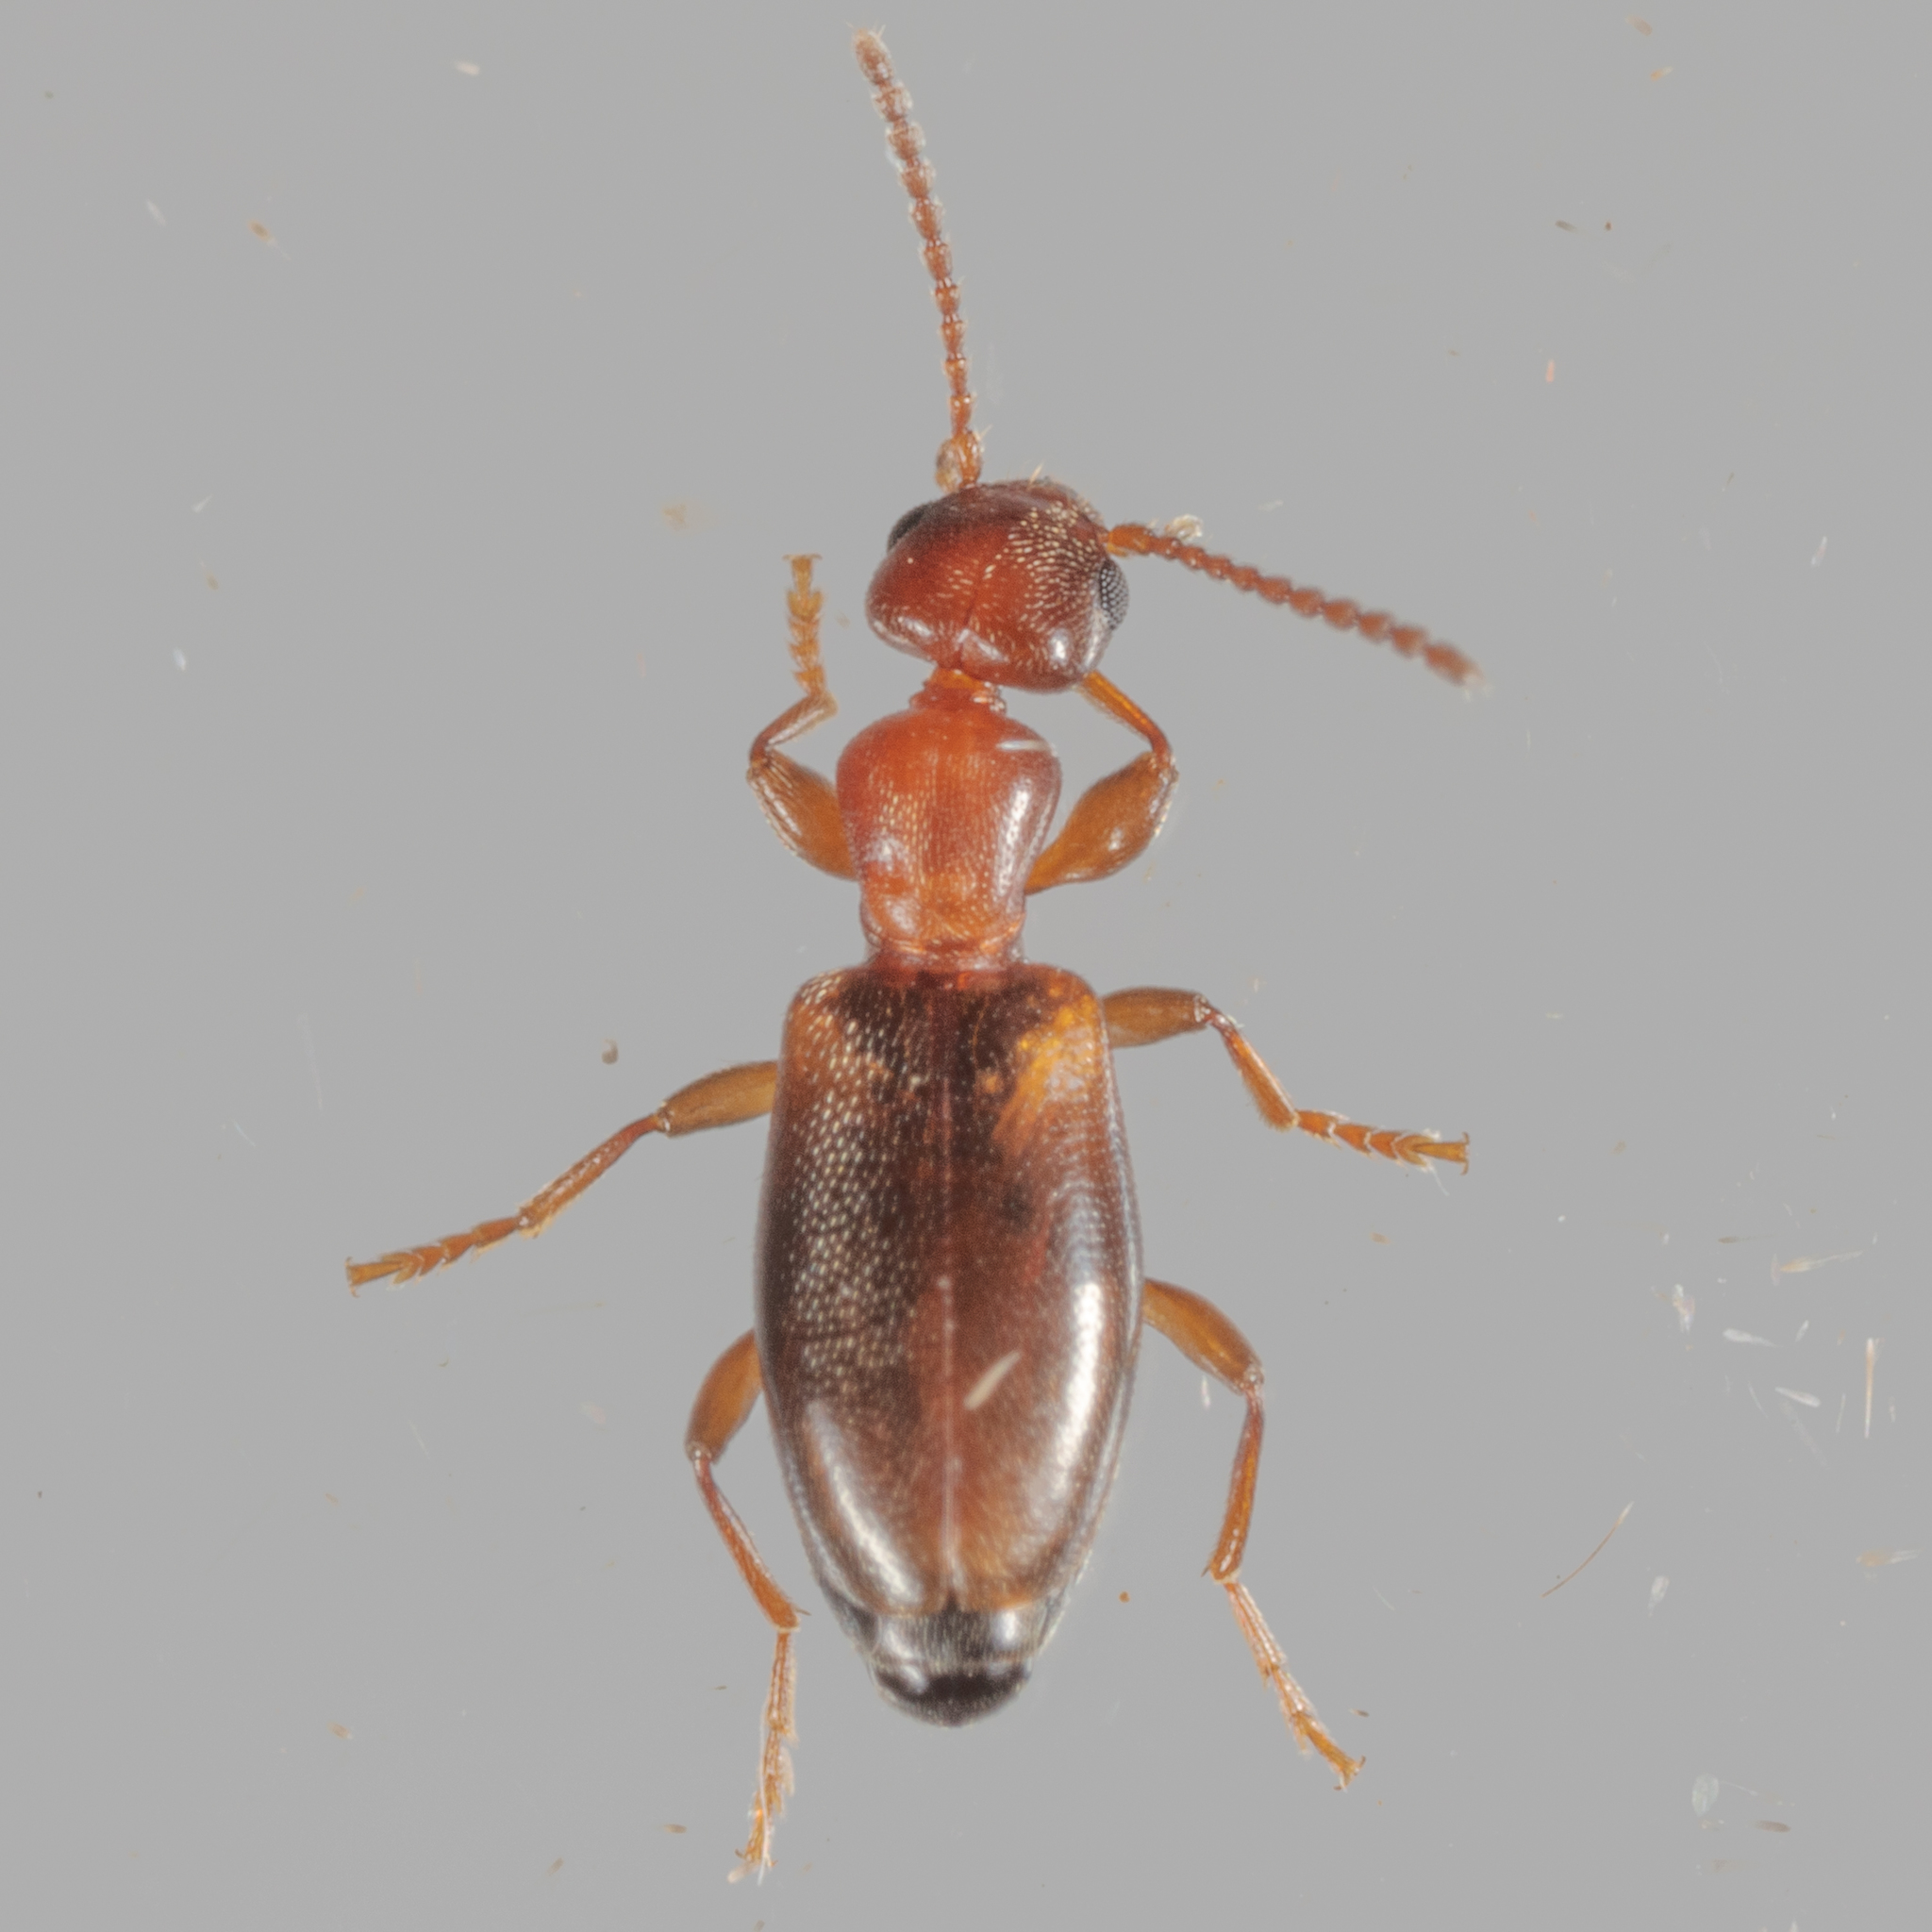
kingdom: Animalia
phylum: Arthropoda
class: Insecta
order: Coleoptera
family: Anthicidae
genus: Omonadus
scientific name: Omonadus floralis
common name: Narrownecked grain beetle
